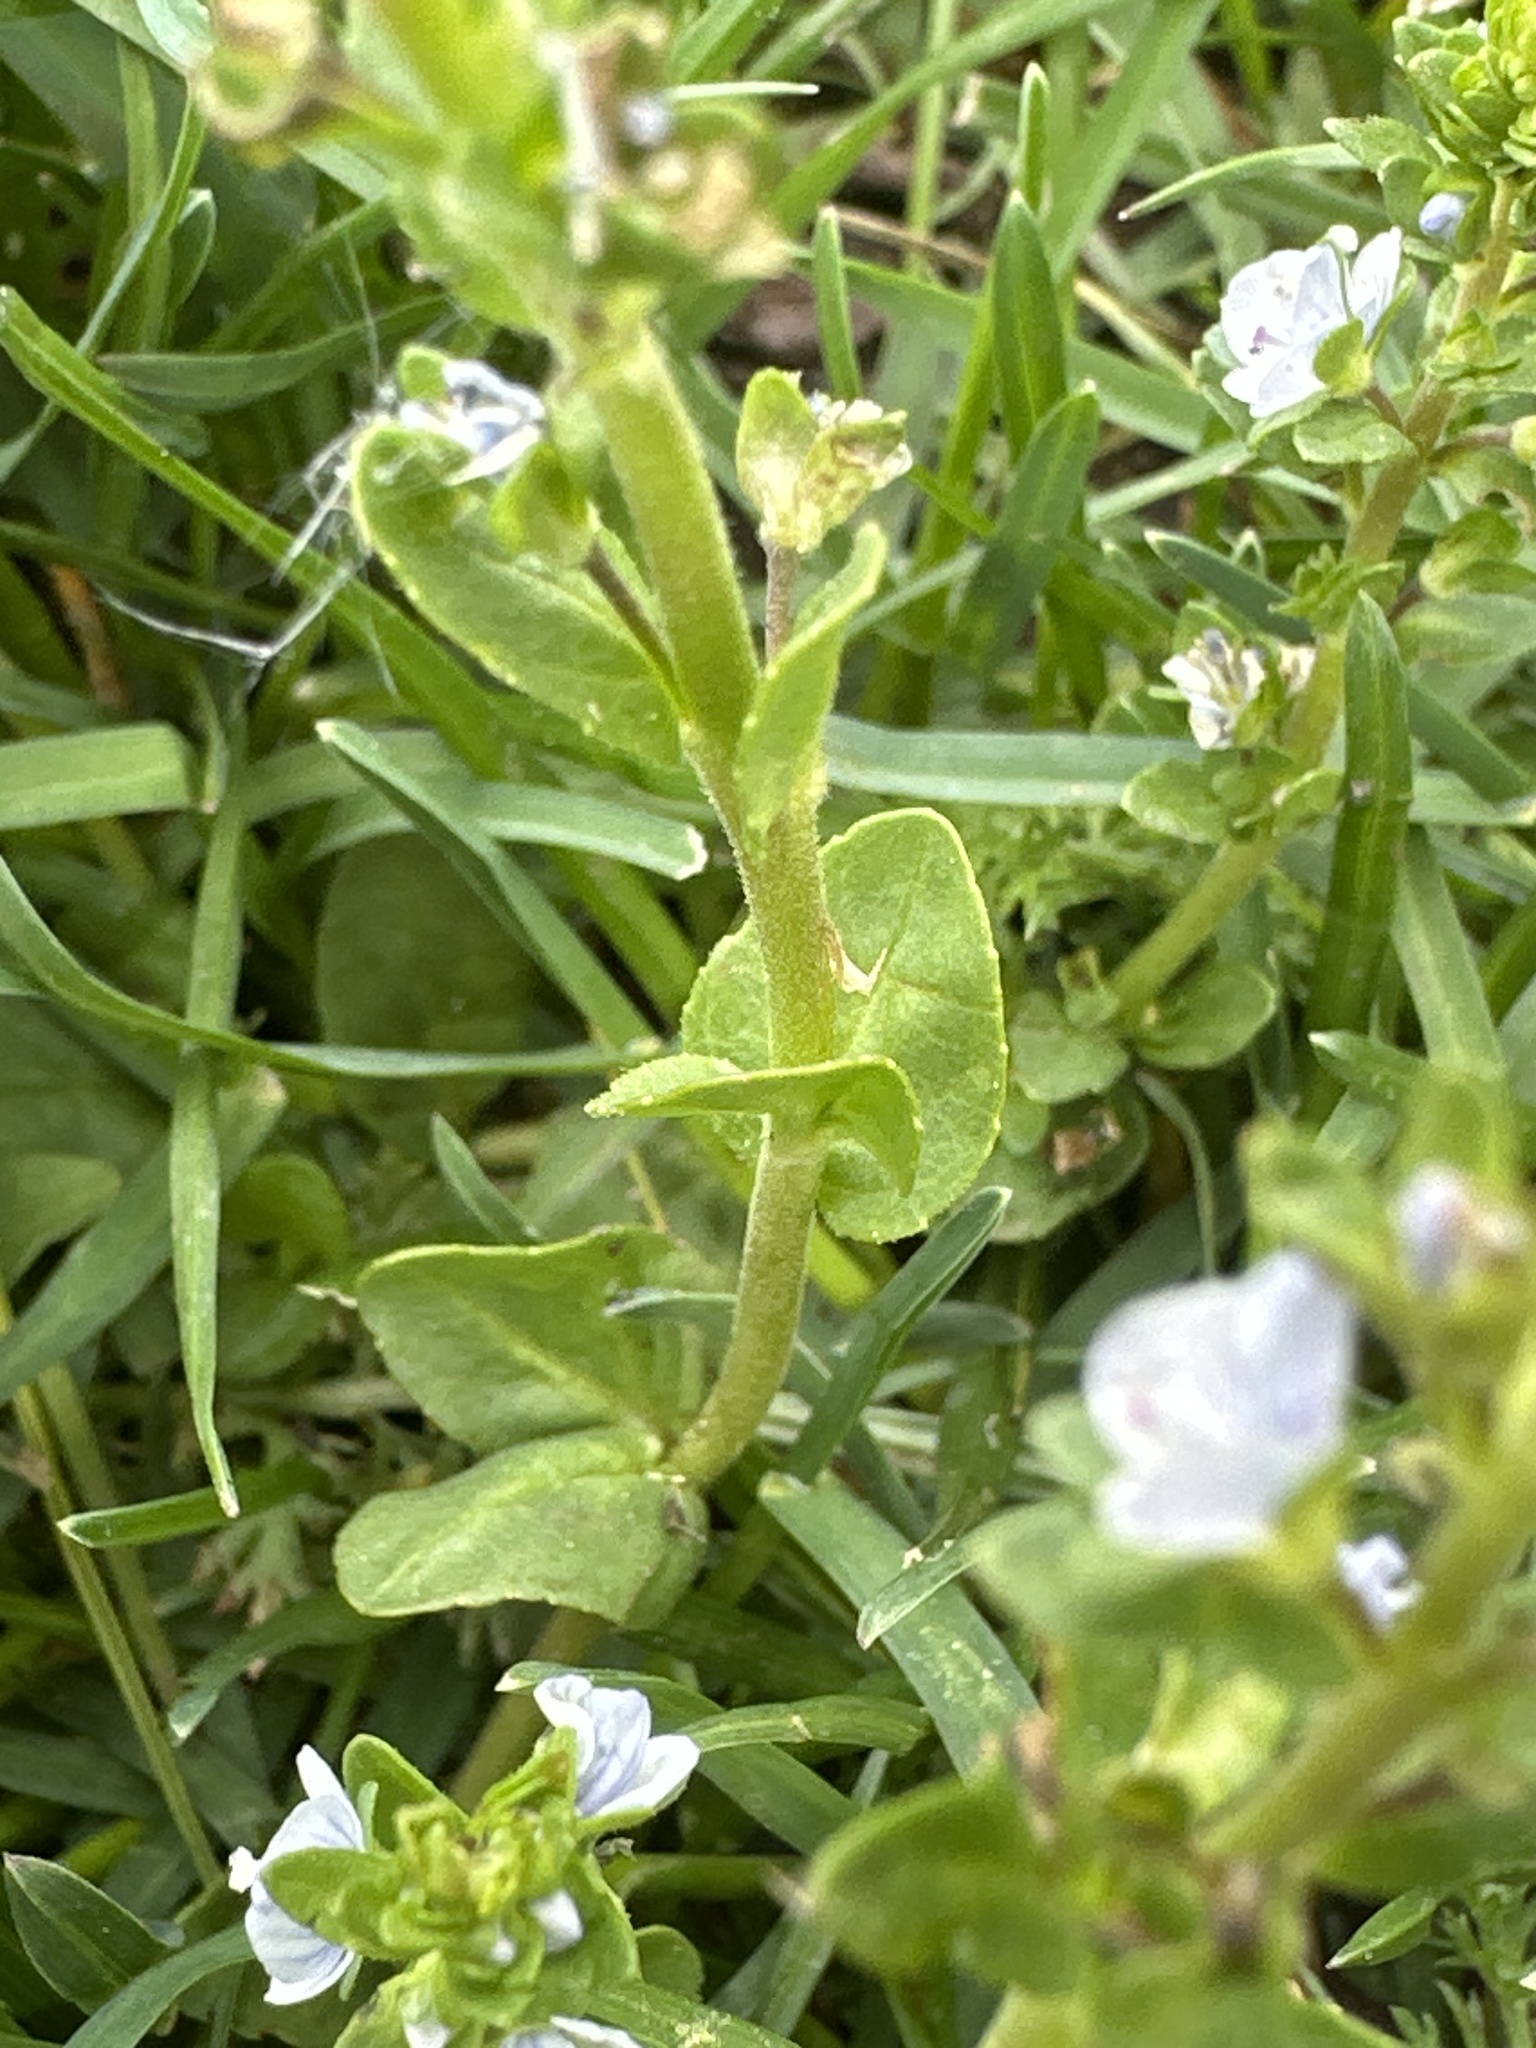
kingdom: Plantae
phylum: Tracheophyta
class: Magnoliopsida
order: Lamiales
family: Plantaginaceae
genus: Veronica
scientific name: Veronica serpyllifolia
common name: Thyme-leaved speedwell
